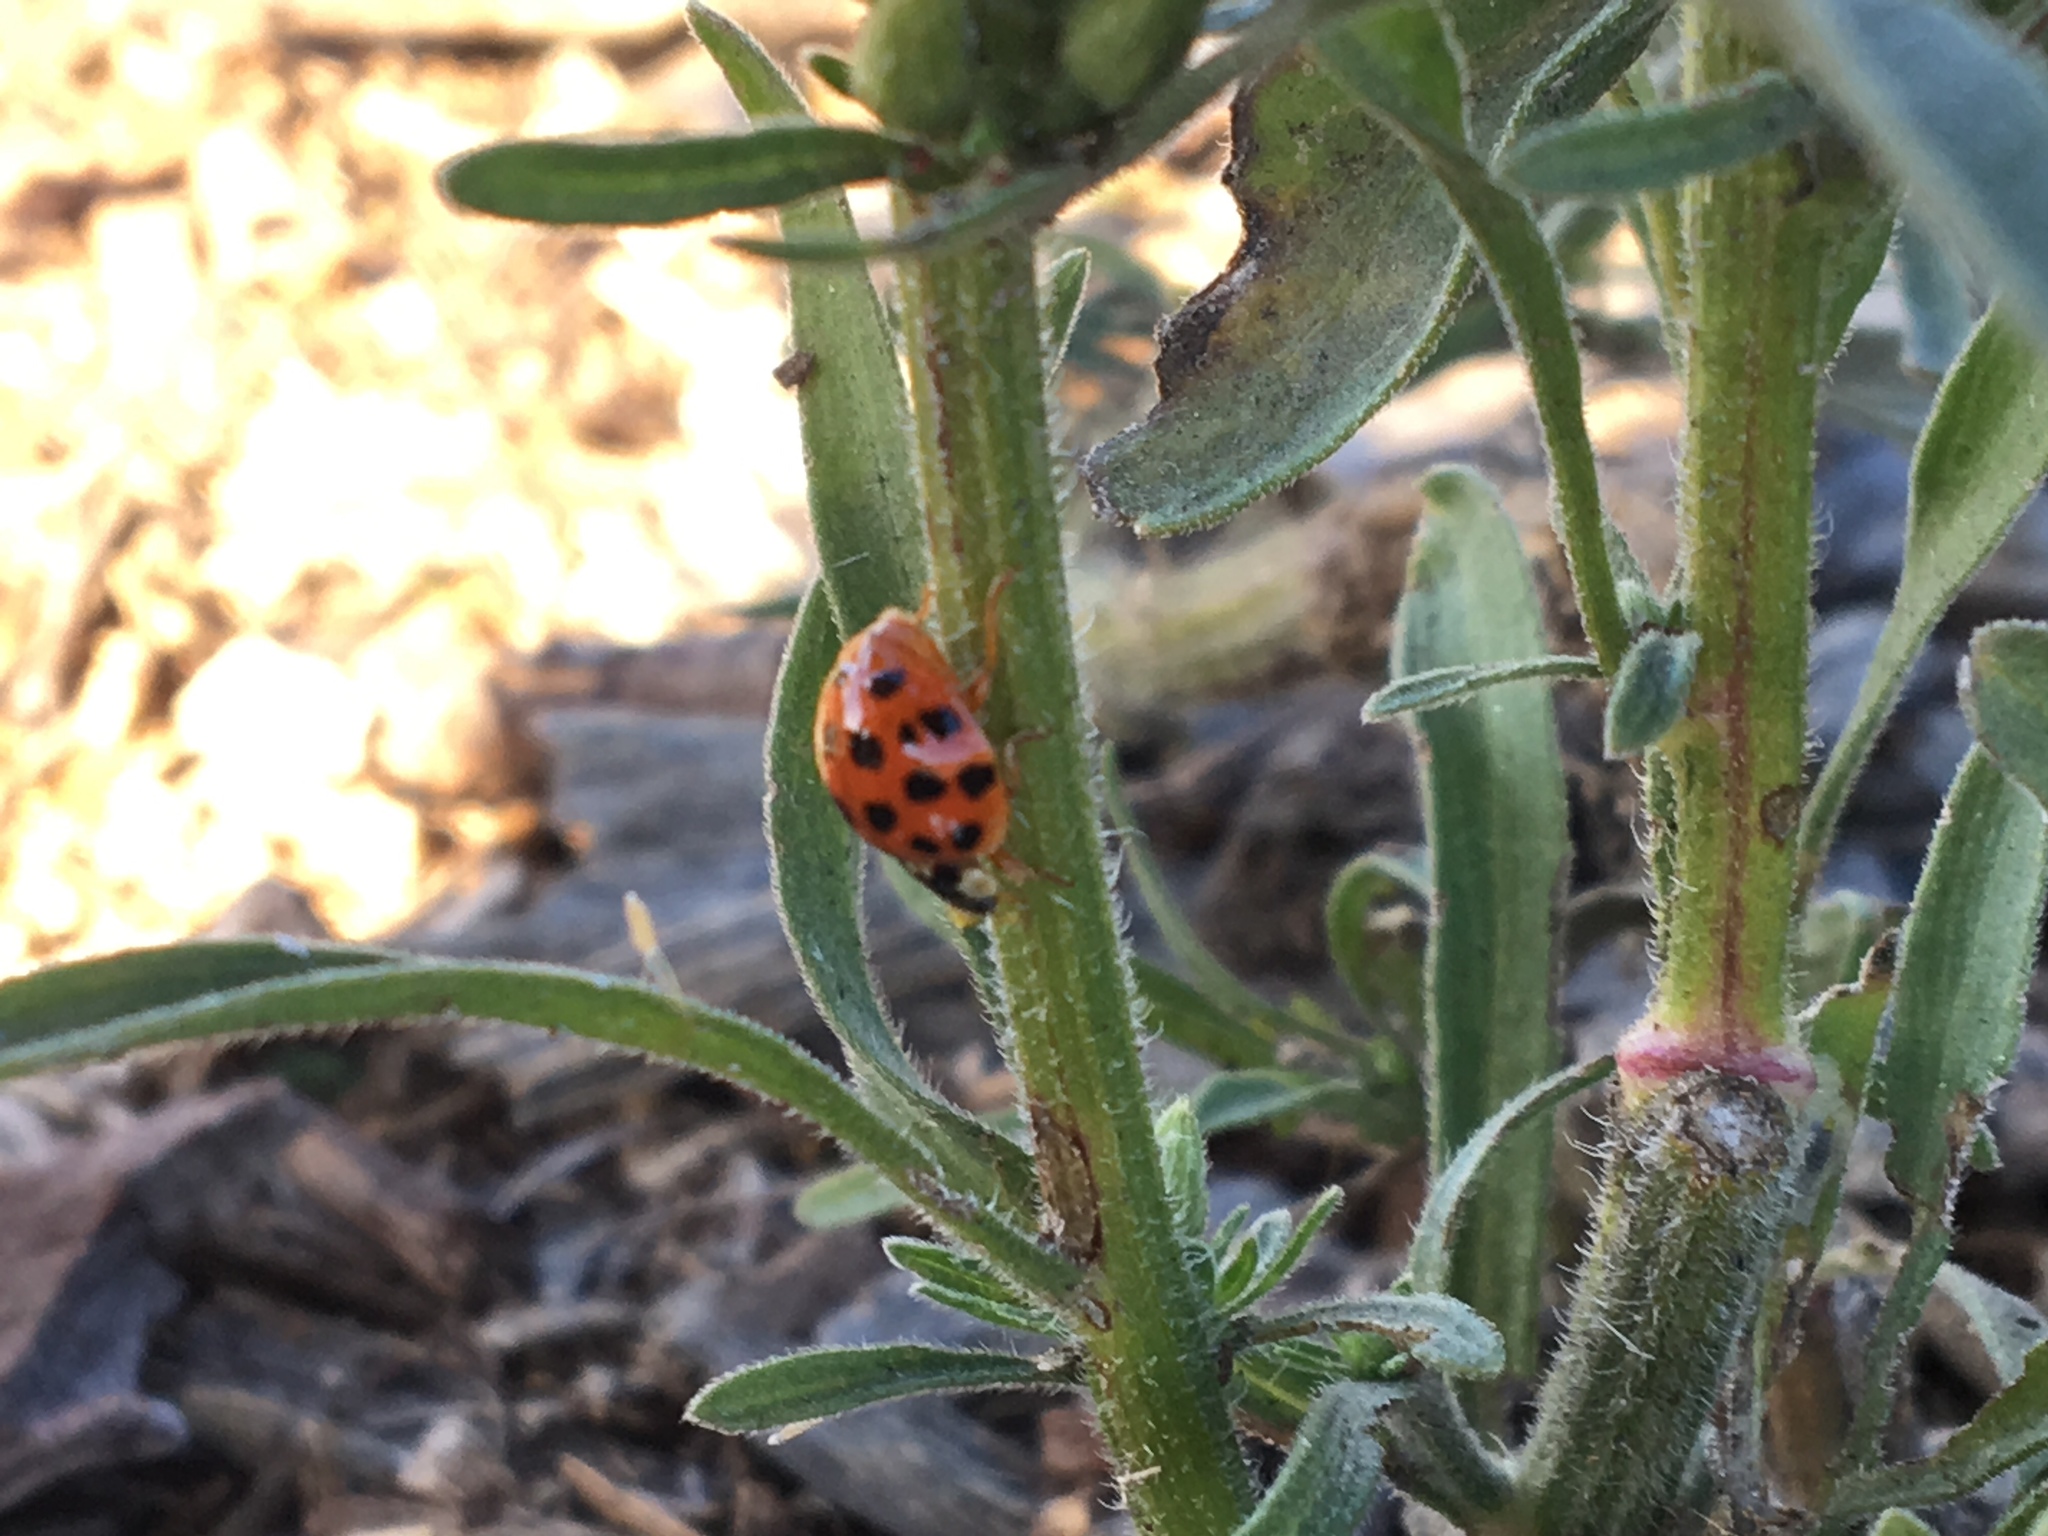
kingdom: Animalia
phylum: Arthropoda
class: Insecta
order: Coleoptera
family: Coccinellidae
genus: Harmonia
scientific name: Harmonia axyridis
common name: Harlequin ladybird
